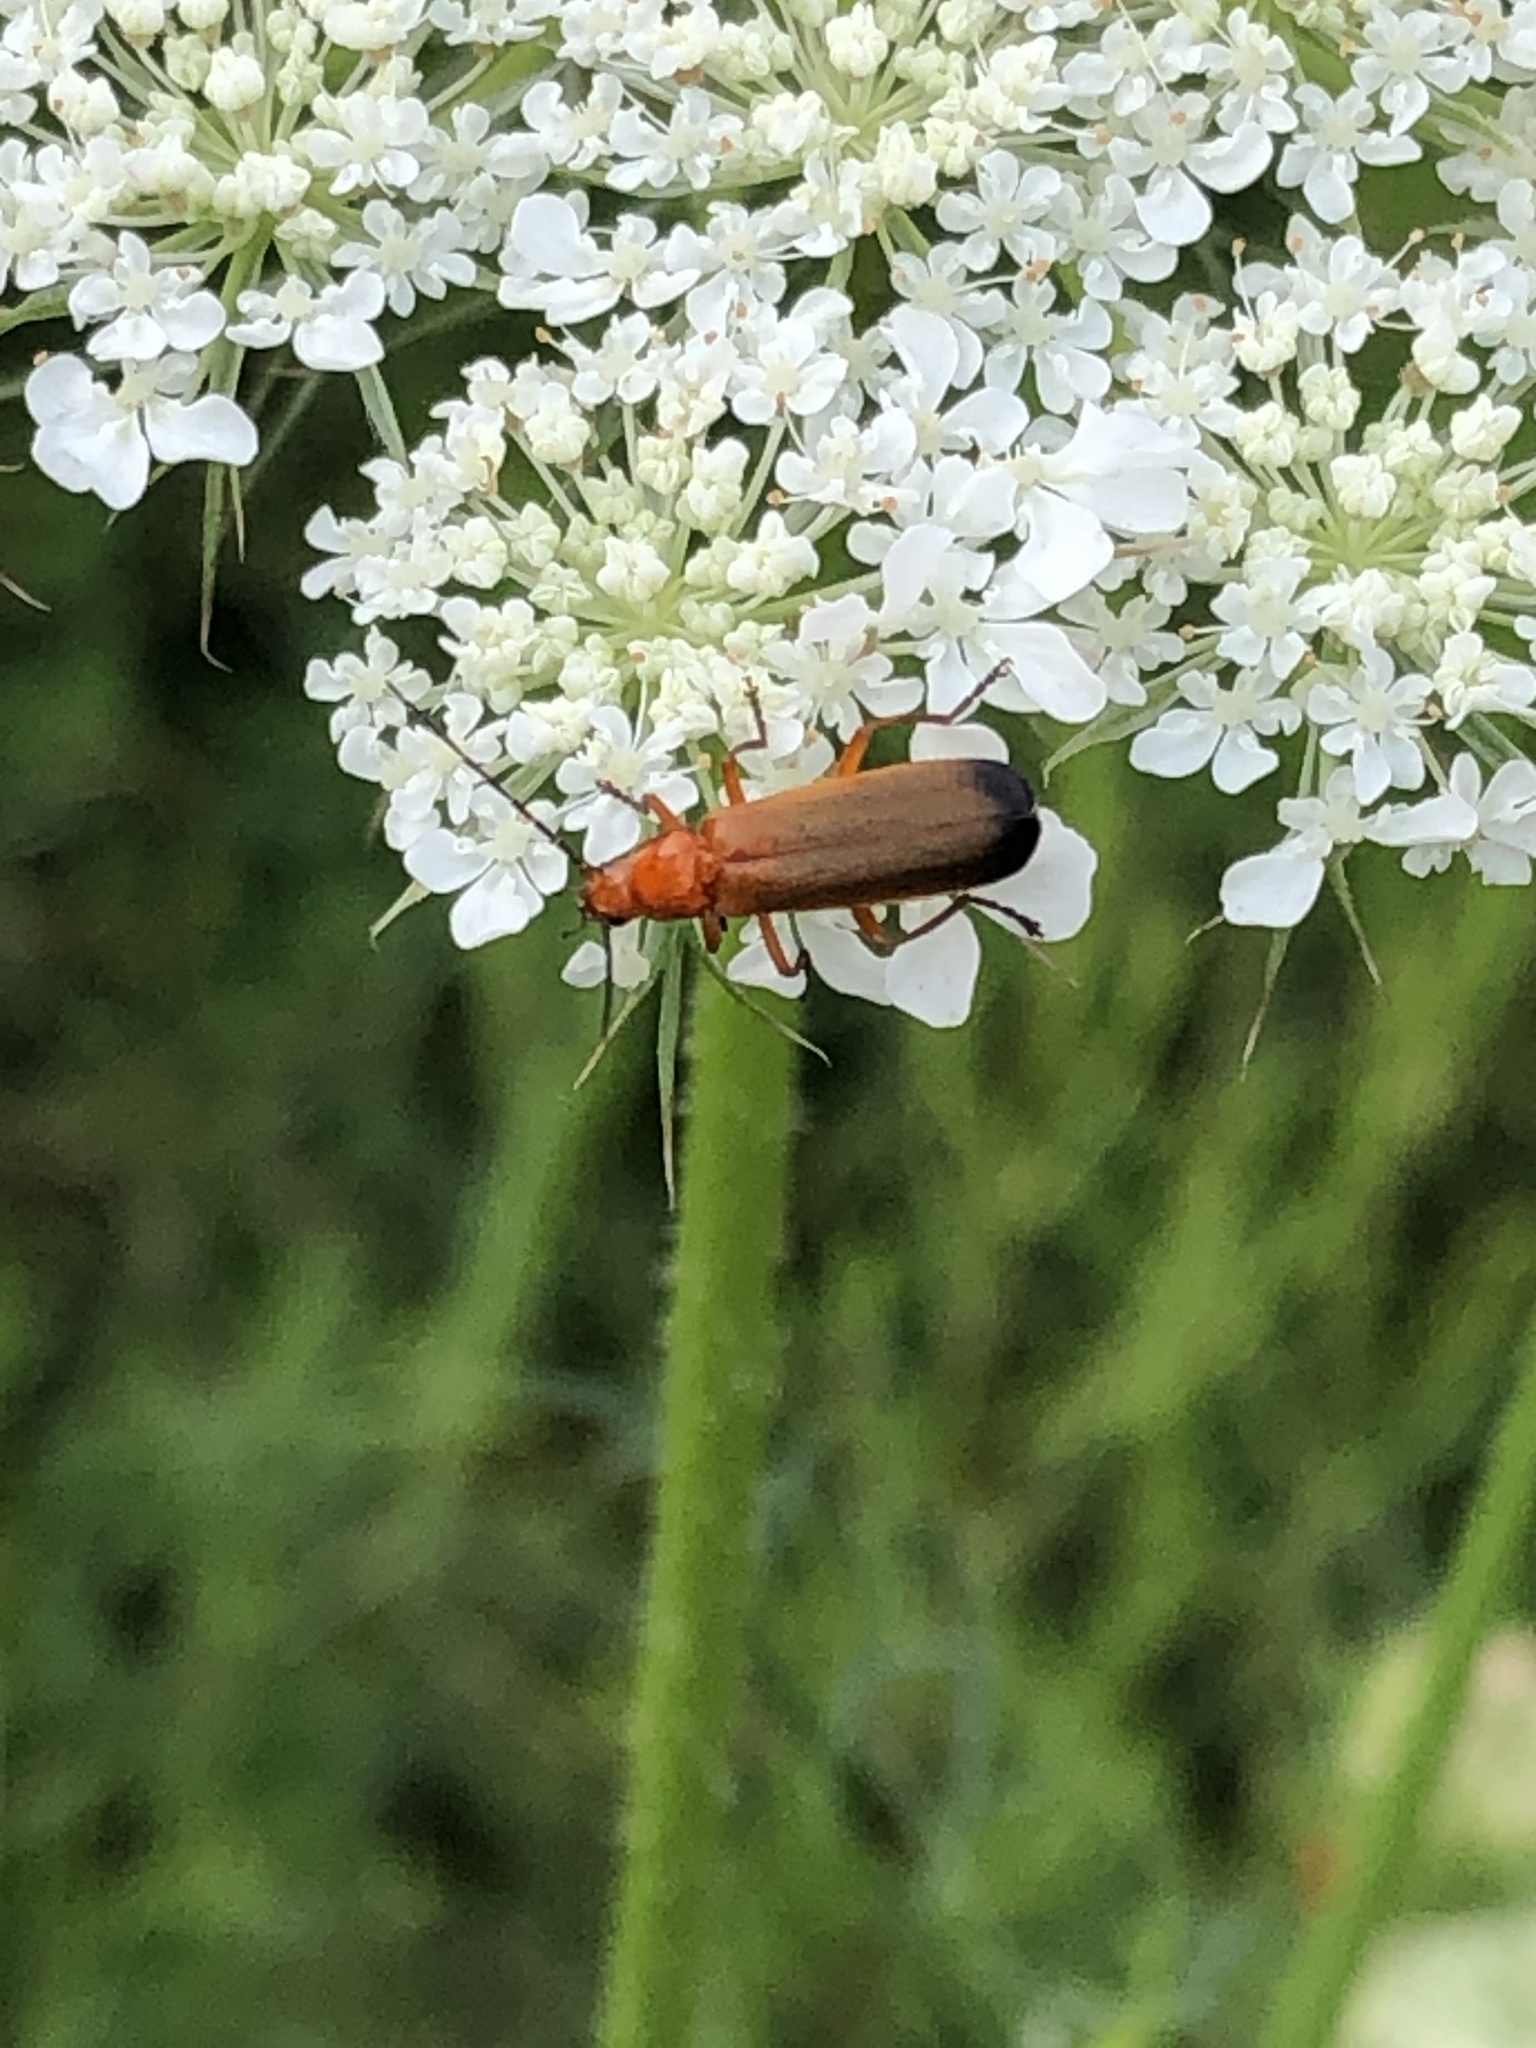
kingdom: Animalia
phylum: Arthropoda
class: Insecta
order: Coleoptera
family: Cantharidae
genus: Rhagonycha
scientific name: Rhagonycha fulva
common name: Common red soldier beetle
